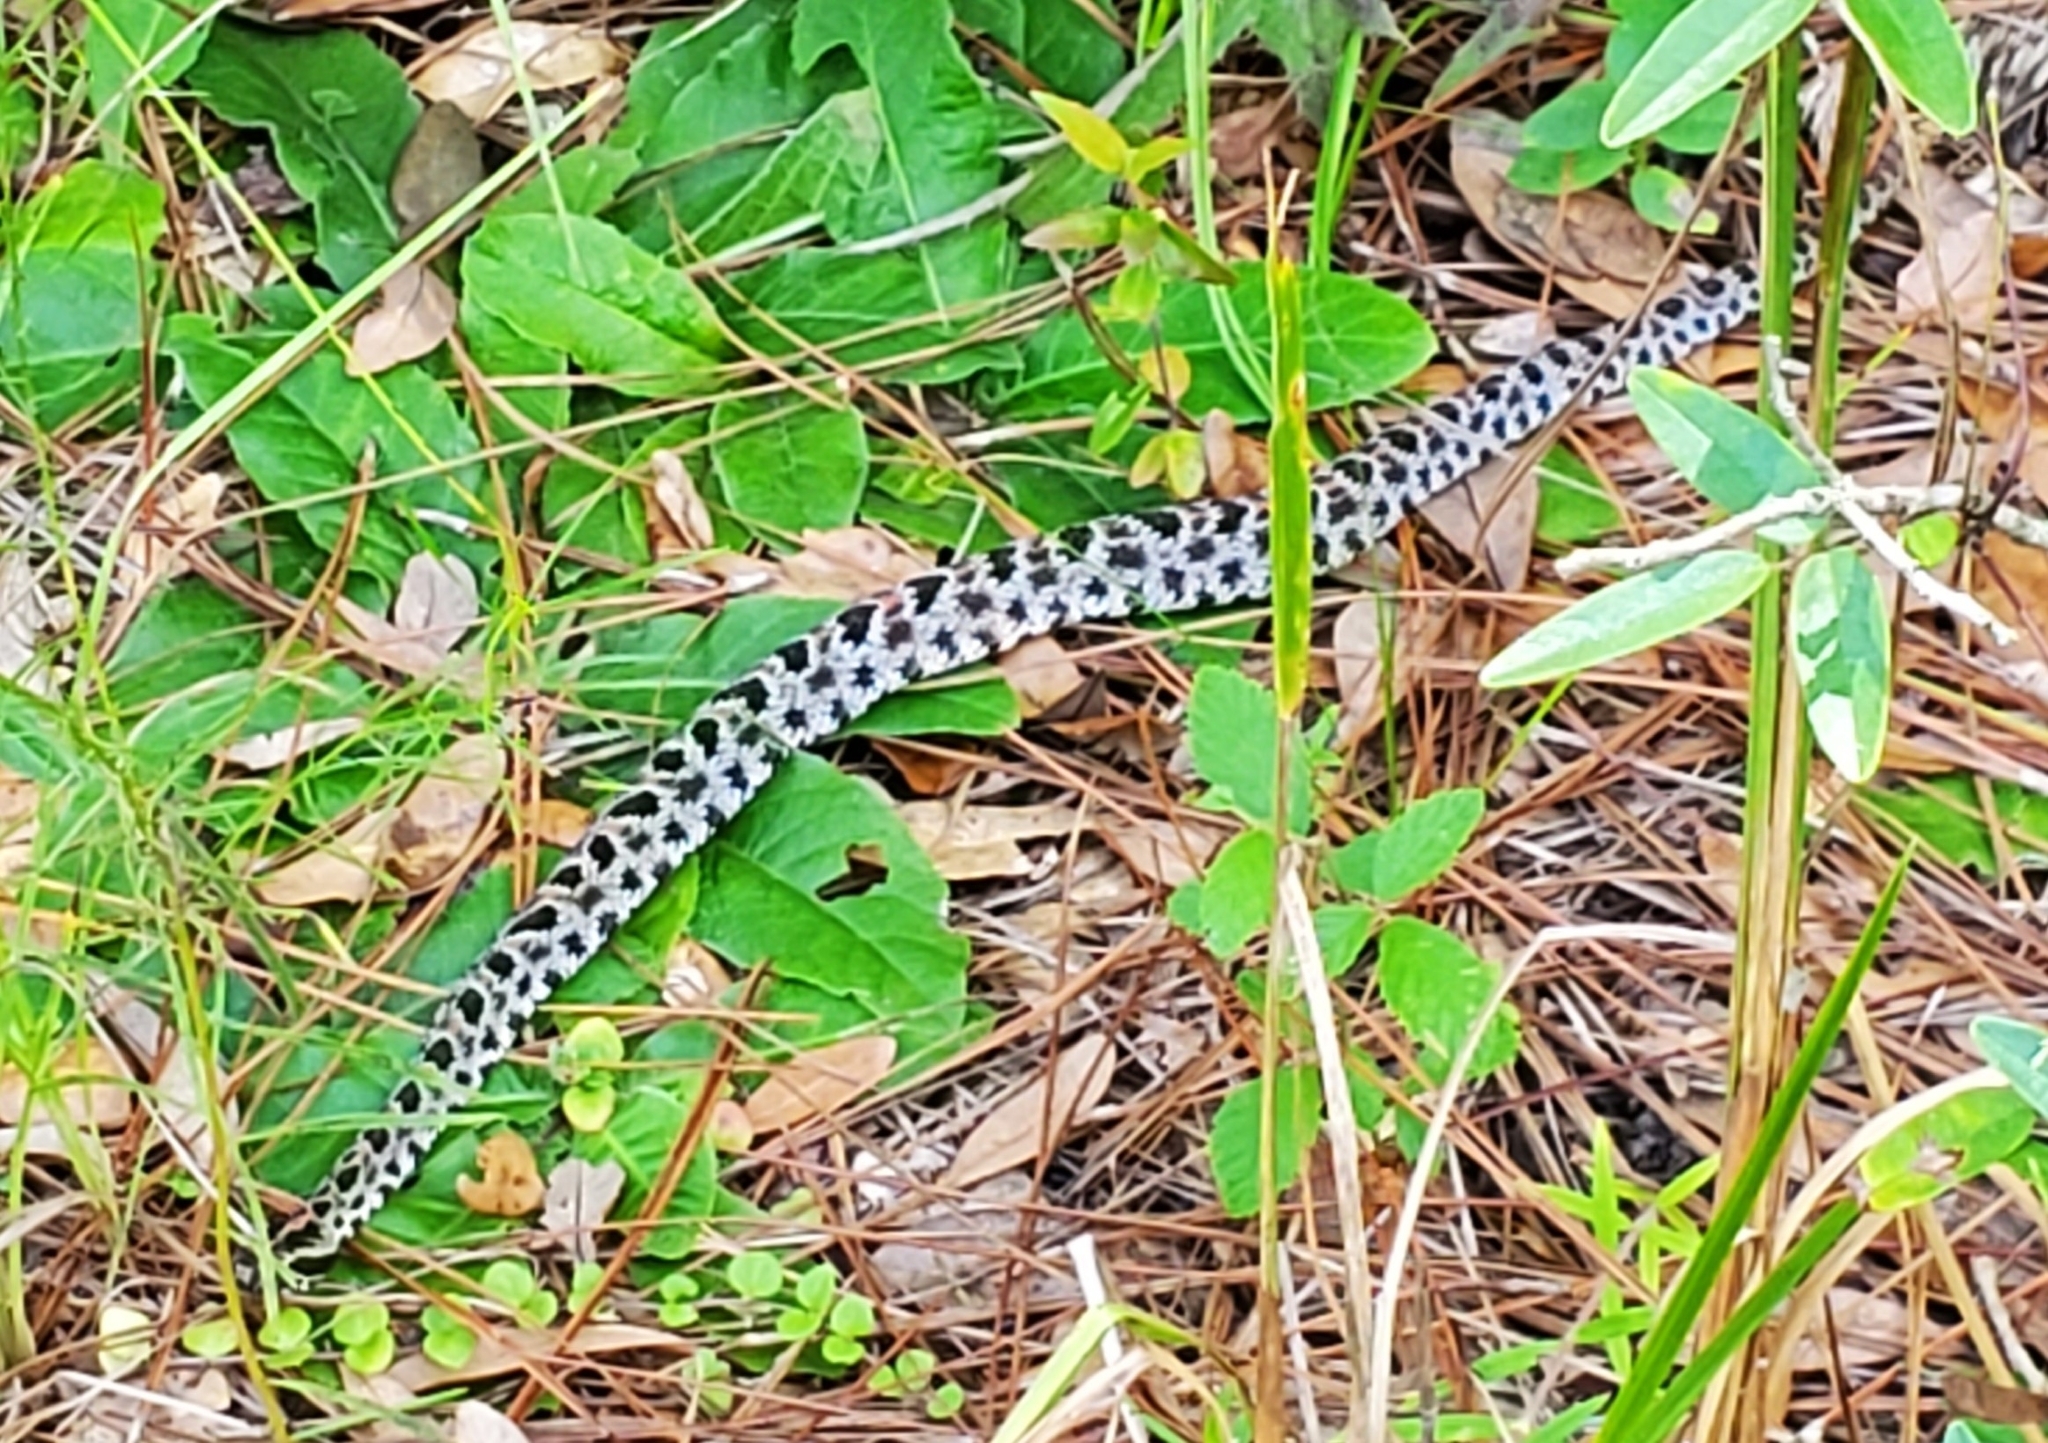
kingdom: Animalia
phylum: Chordata
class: Squamata
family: Viperidae
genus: Sistrurus
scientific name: Sistrurus miliarius
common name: Pygmy rattlesnake
